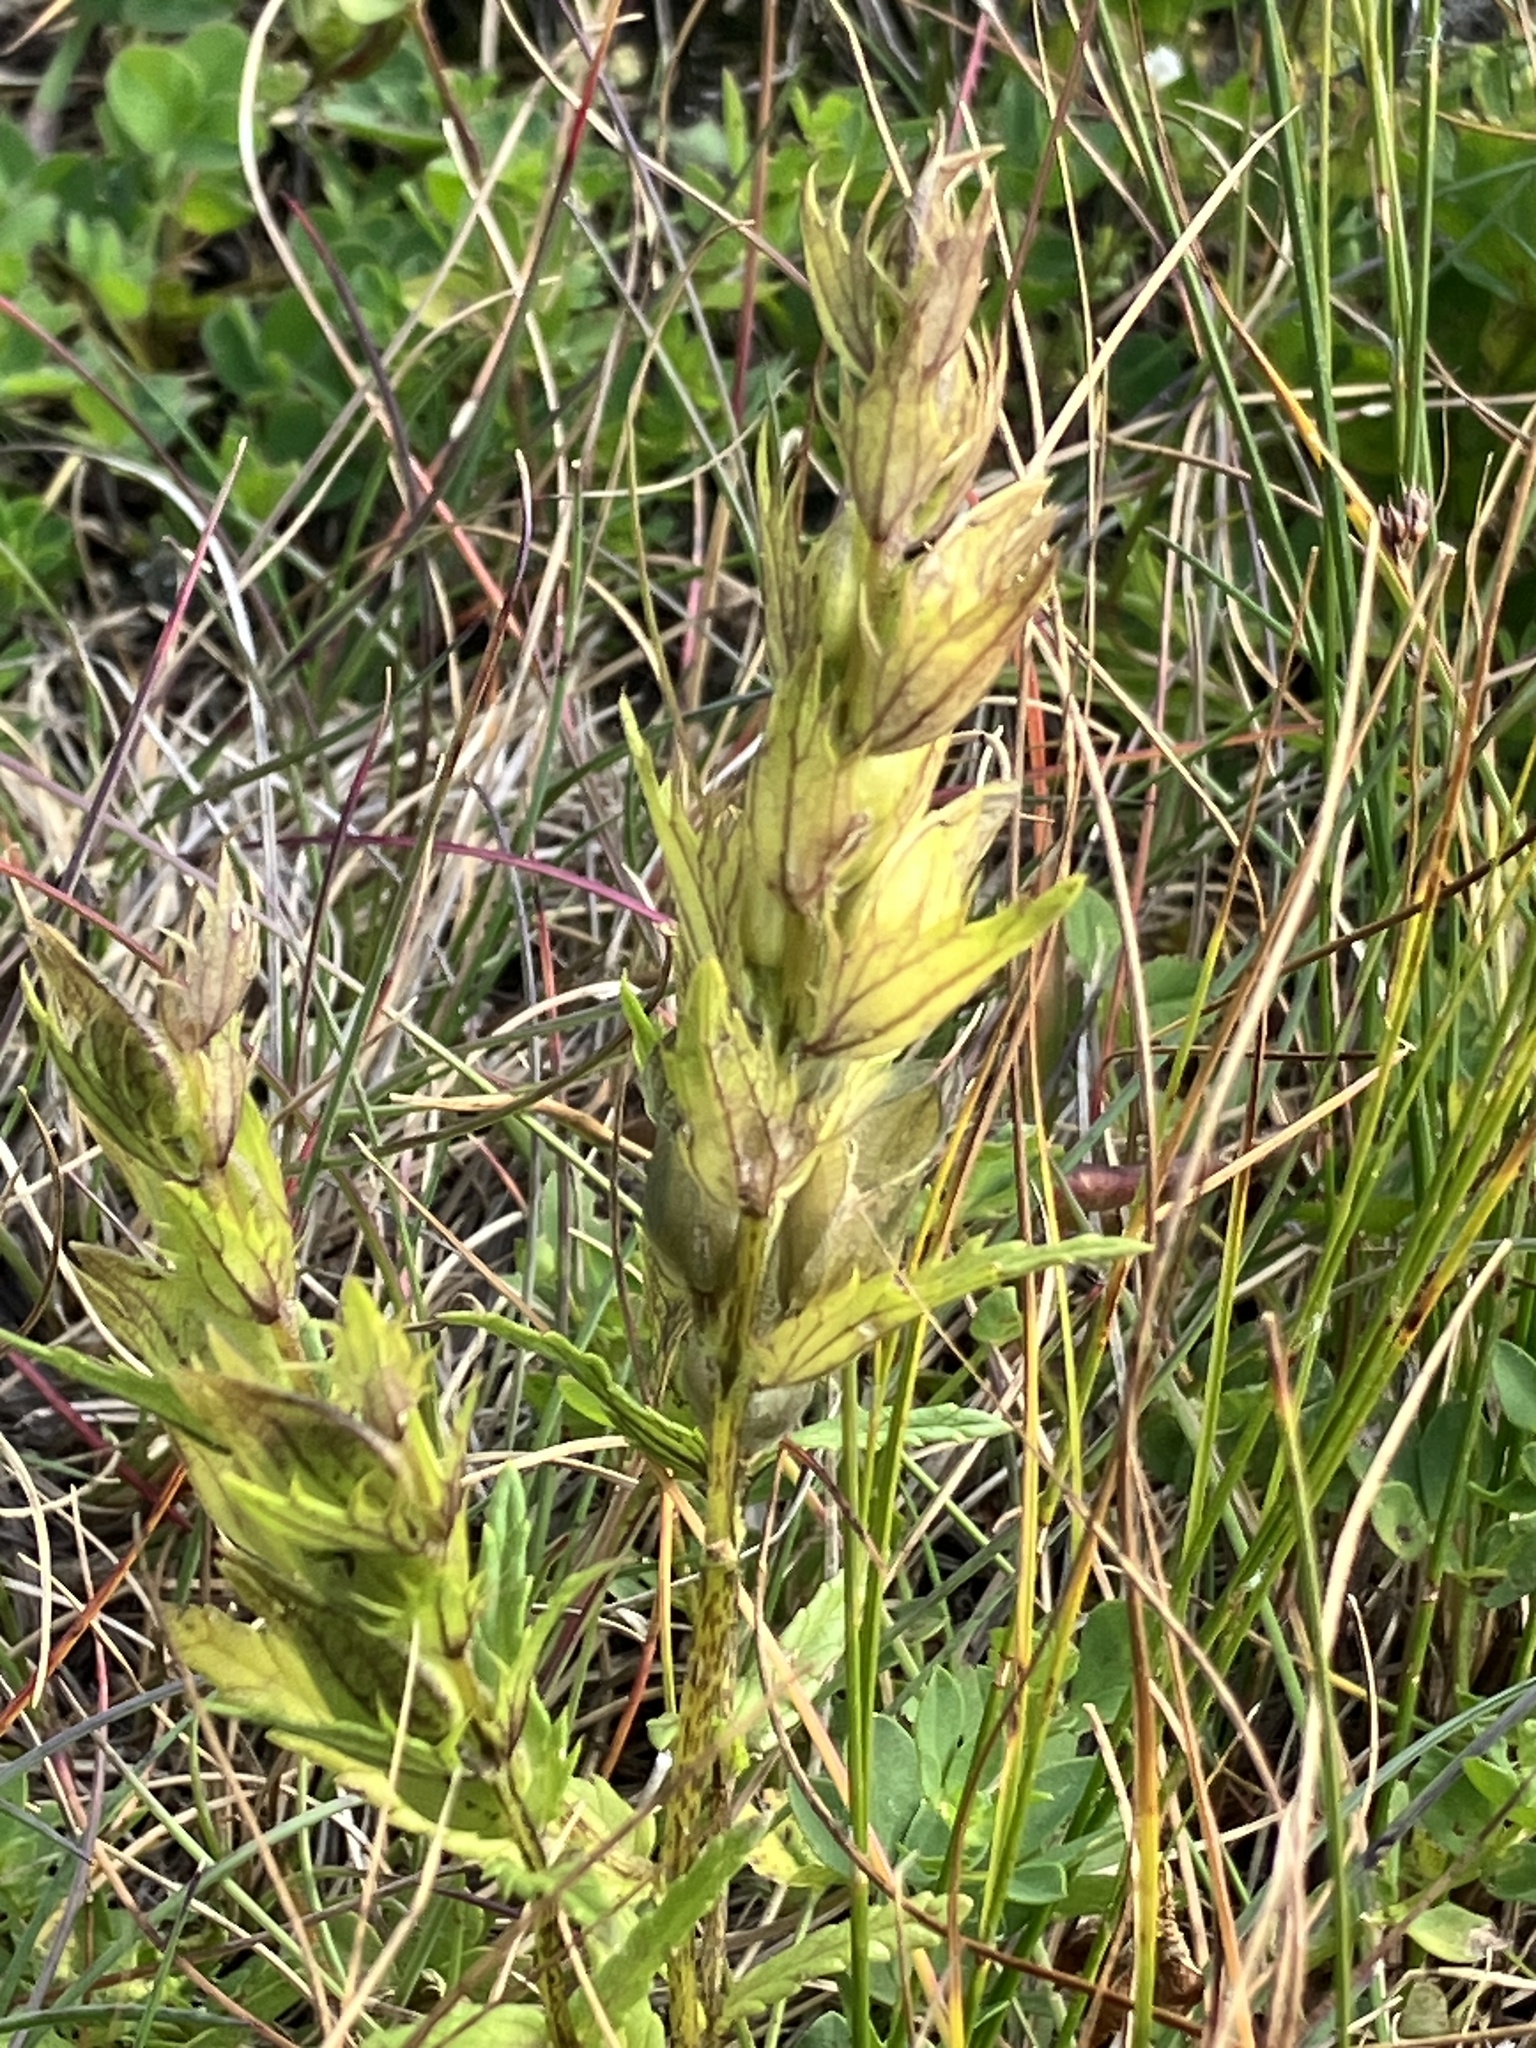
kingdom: Plantae
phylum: Tracheophyta
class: Magnoliopsida
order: Lamiales
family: Orobanchaceae
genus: Rhinanthus
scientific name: Rhinanthus glacialis
